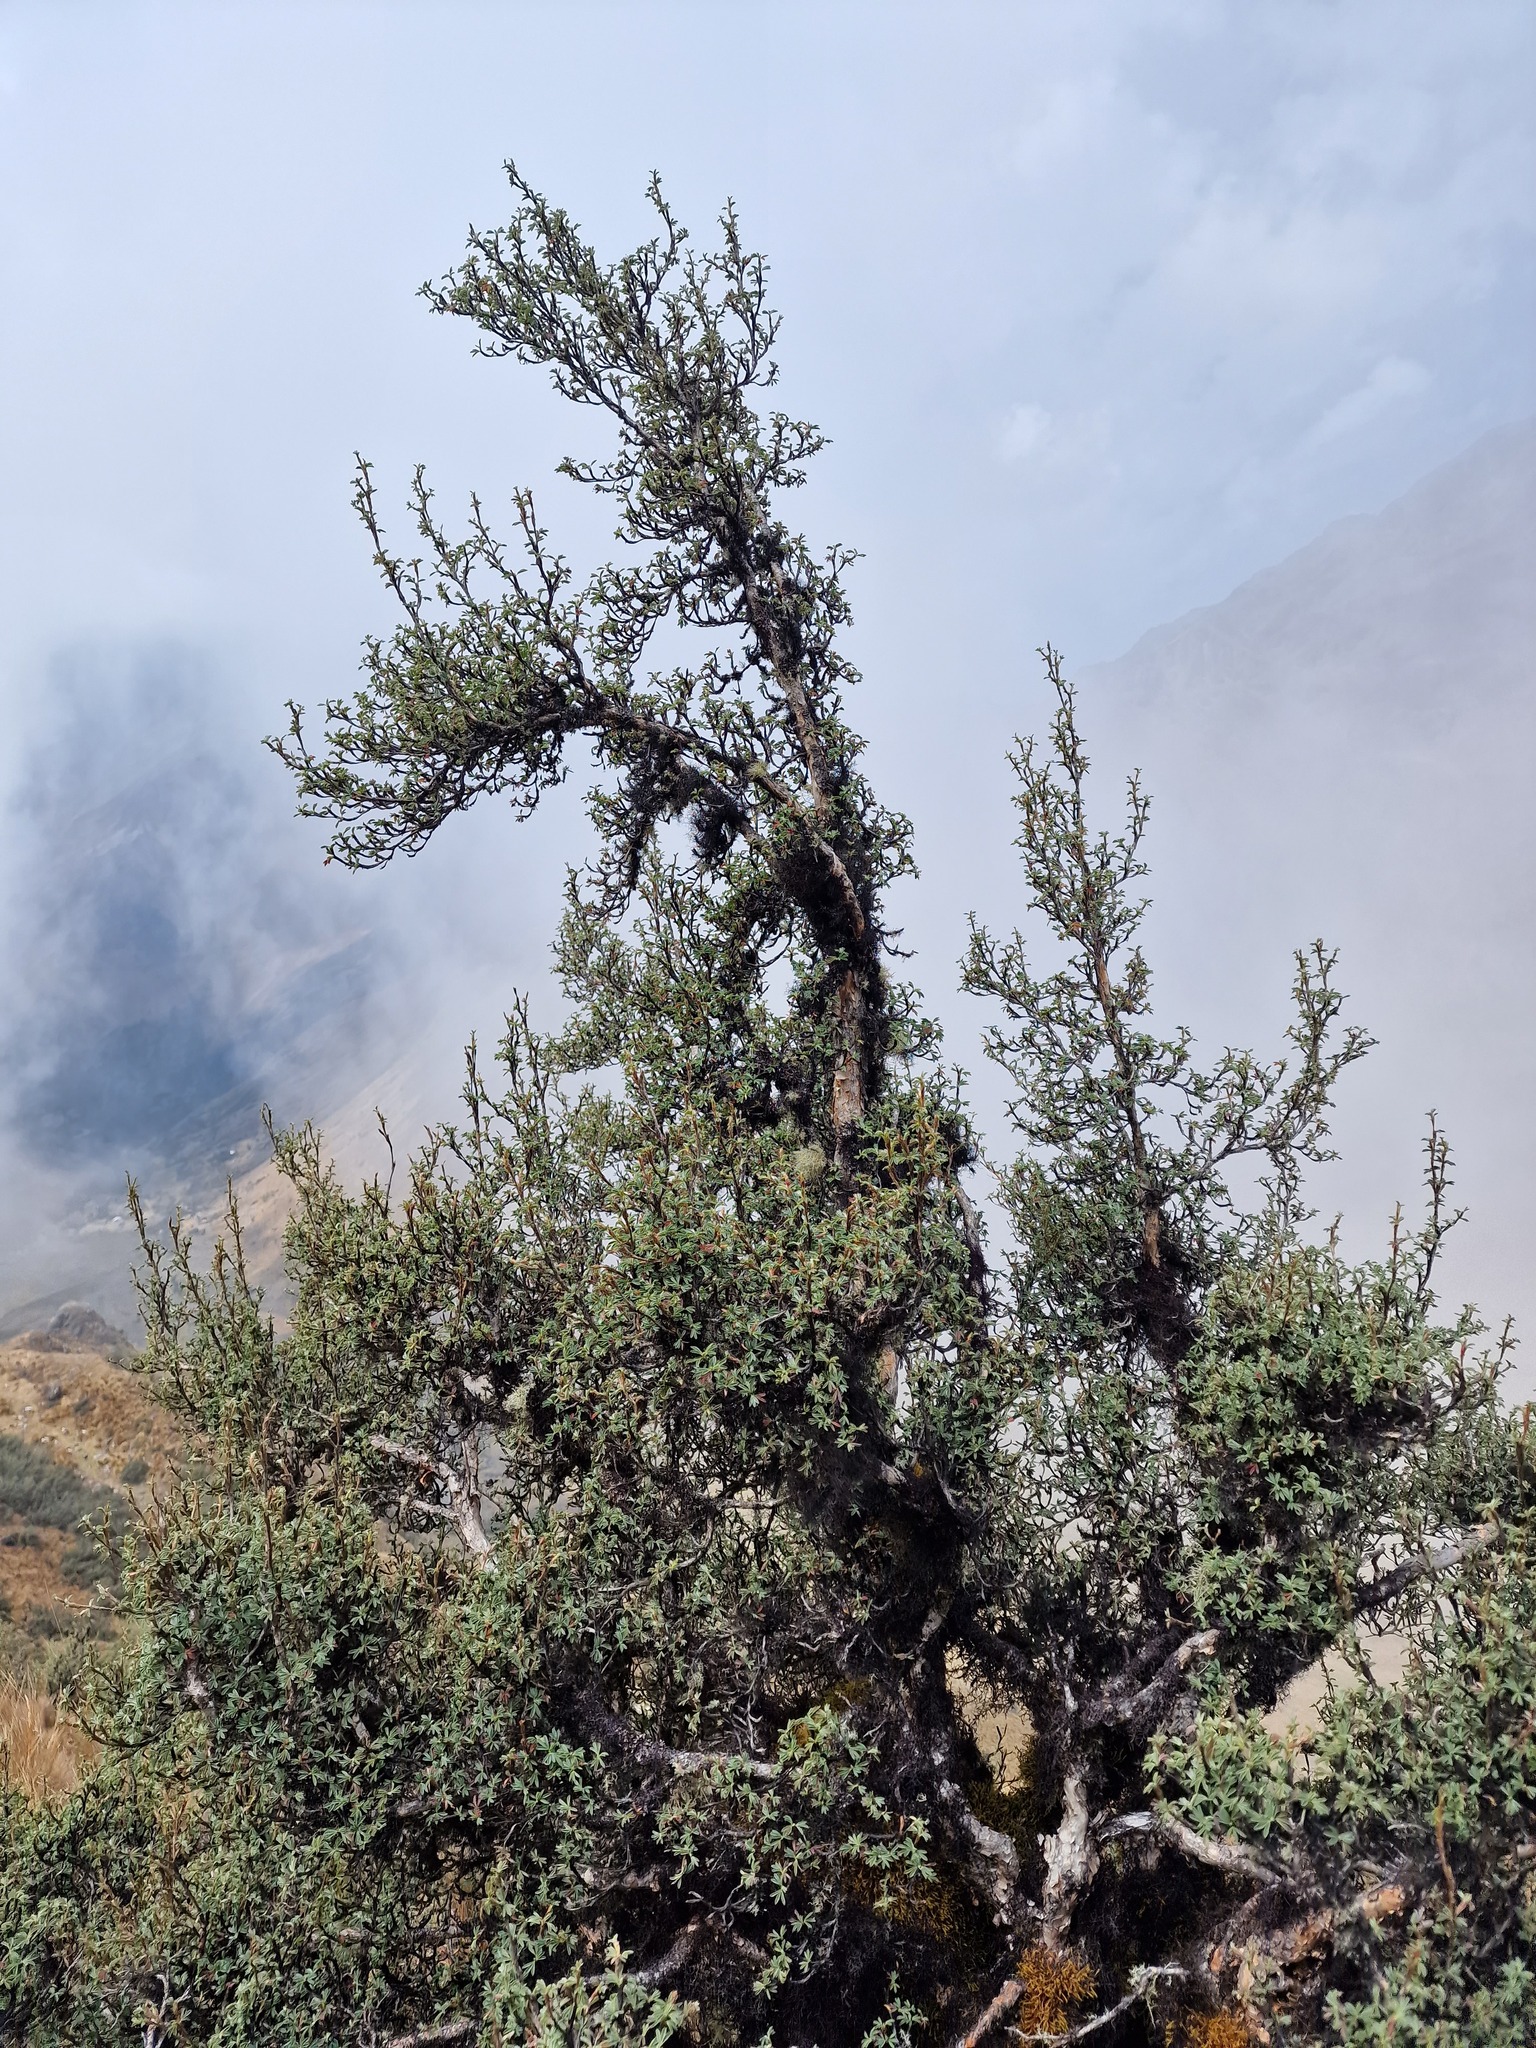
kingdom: Plantae
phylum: Tracheophyta
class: Magnoliopsida
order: Rosales
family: Rosaceae
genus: Polylepis
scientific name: Polylepis rodolfovasquezii
